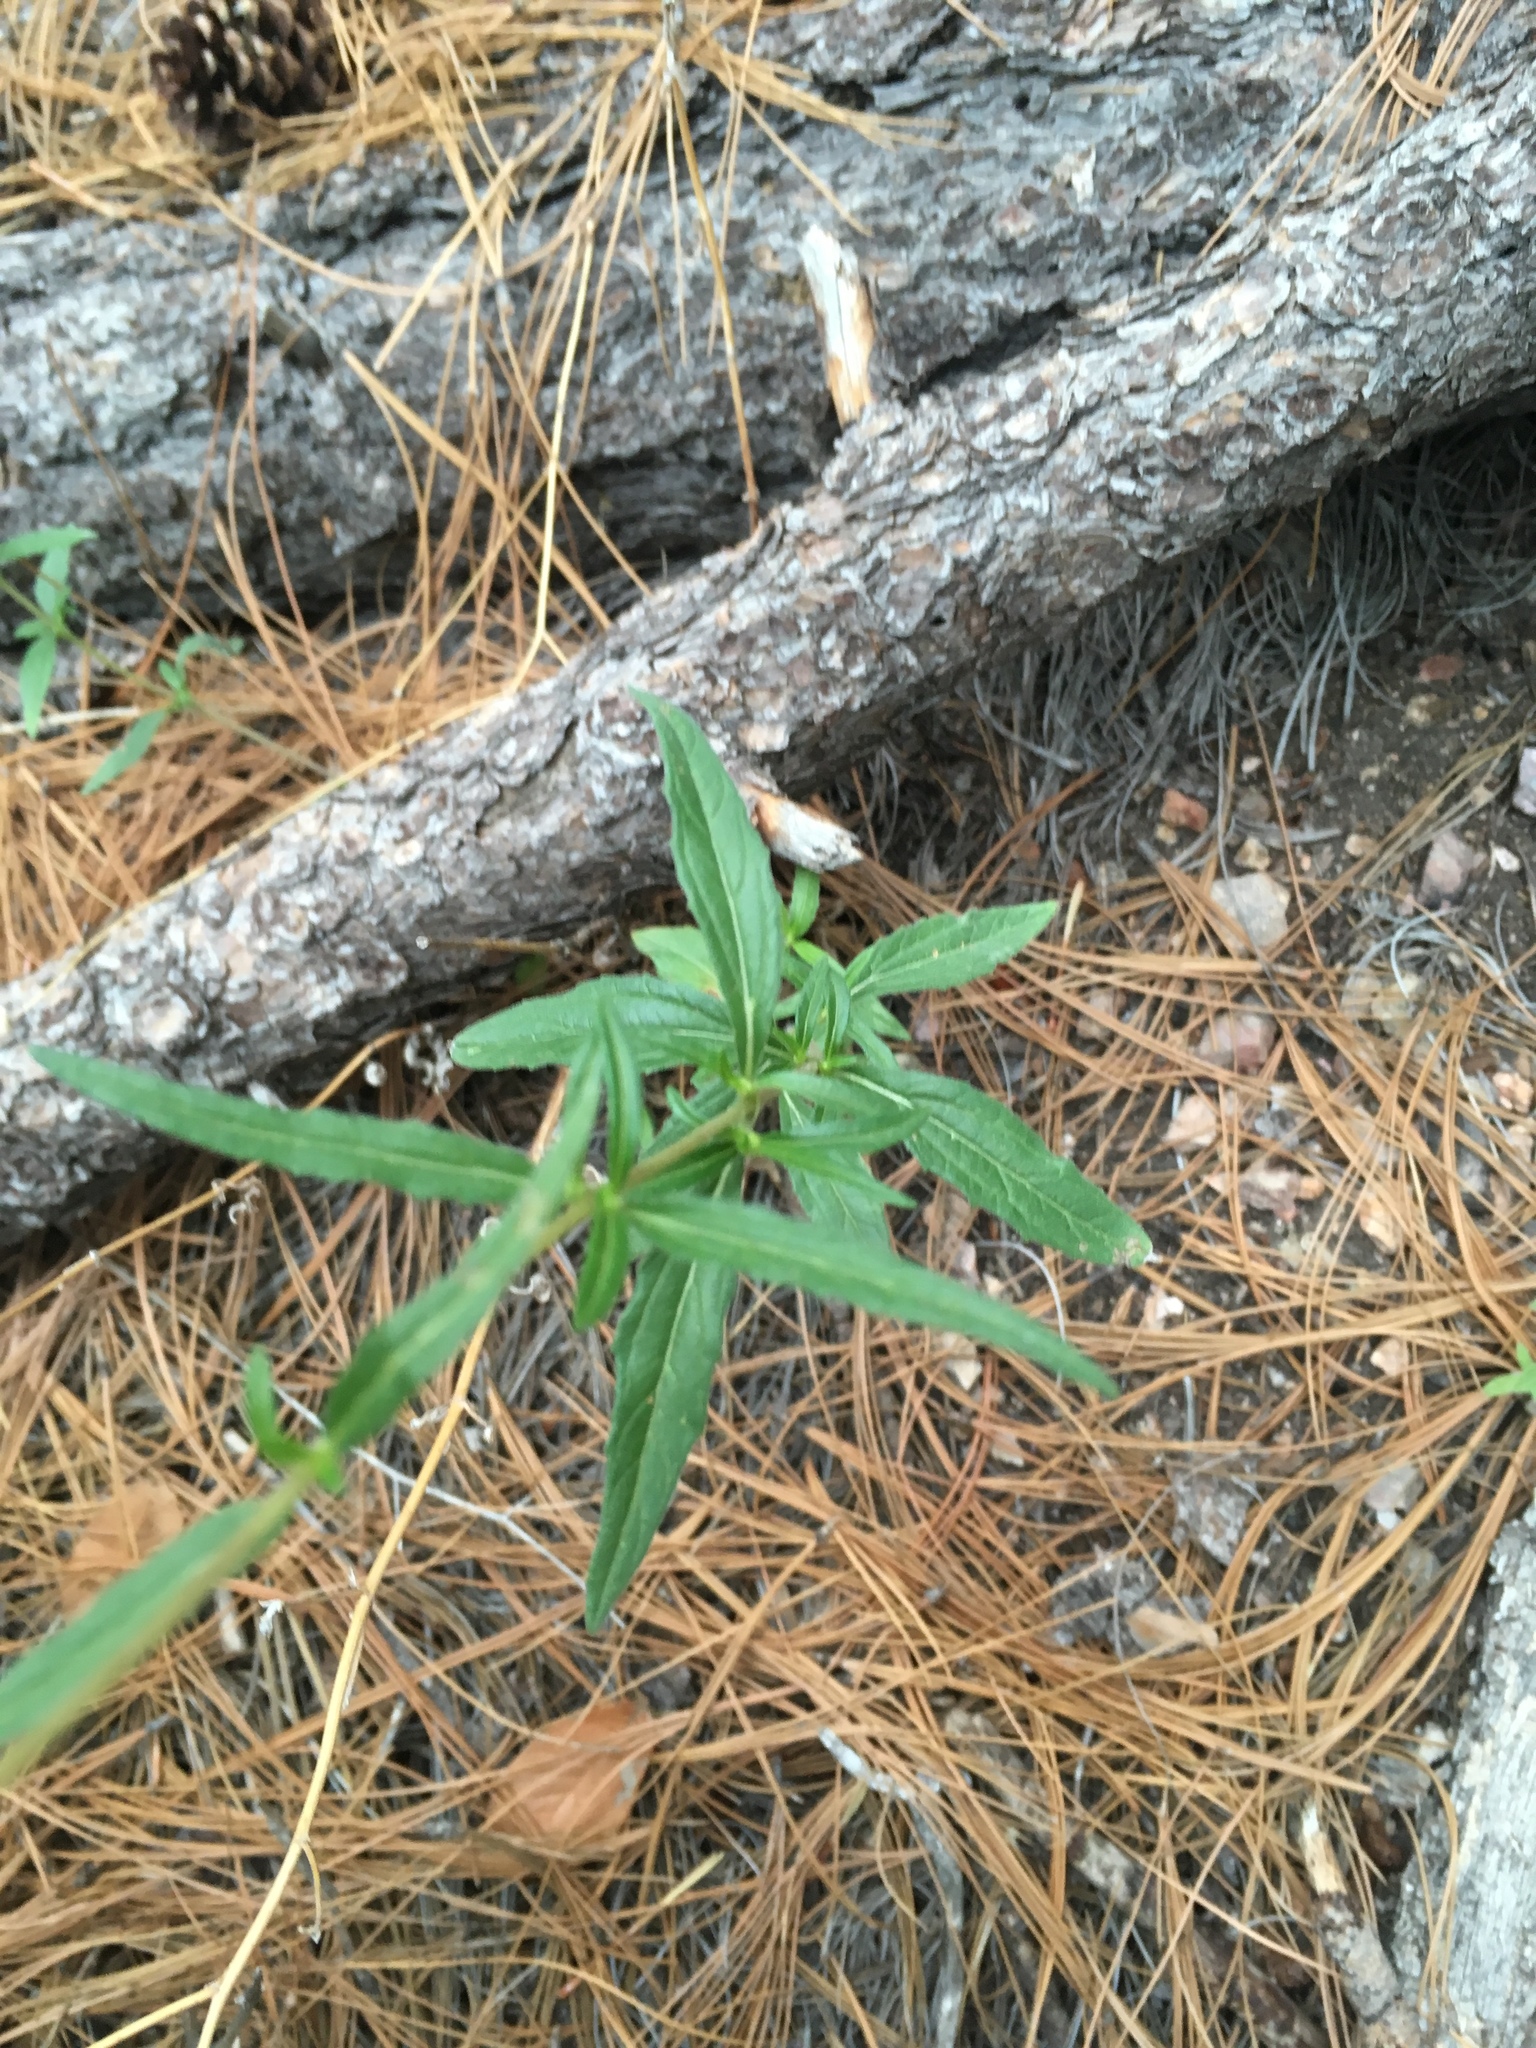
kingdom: Plantae
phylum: Tracheophyta
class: Magnoliopsida
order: Asterales
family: Asteraceae
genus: Heliomeris
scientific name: Heliomeris multiflora
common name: Showy goldeneye
